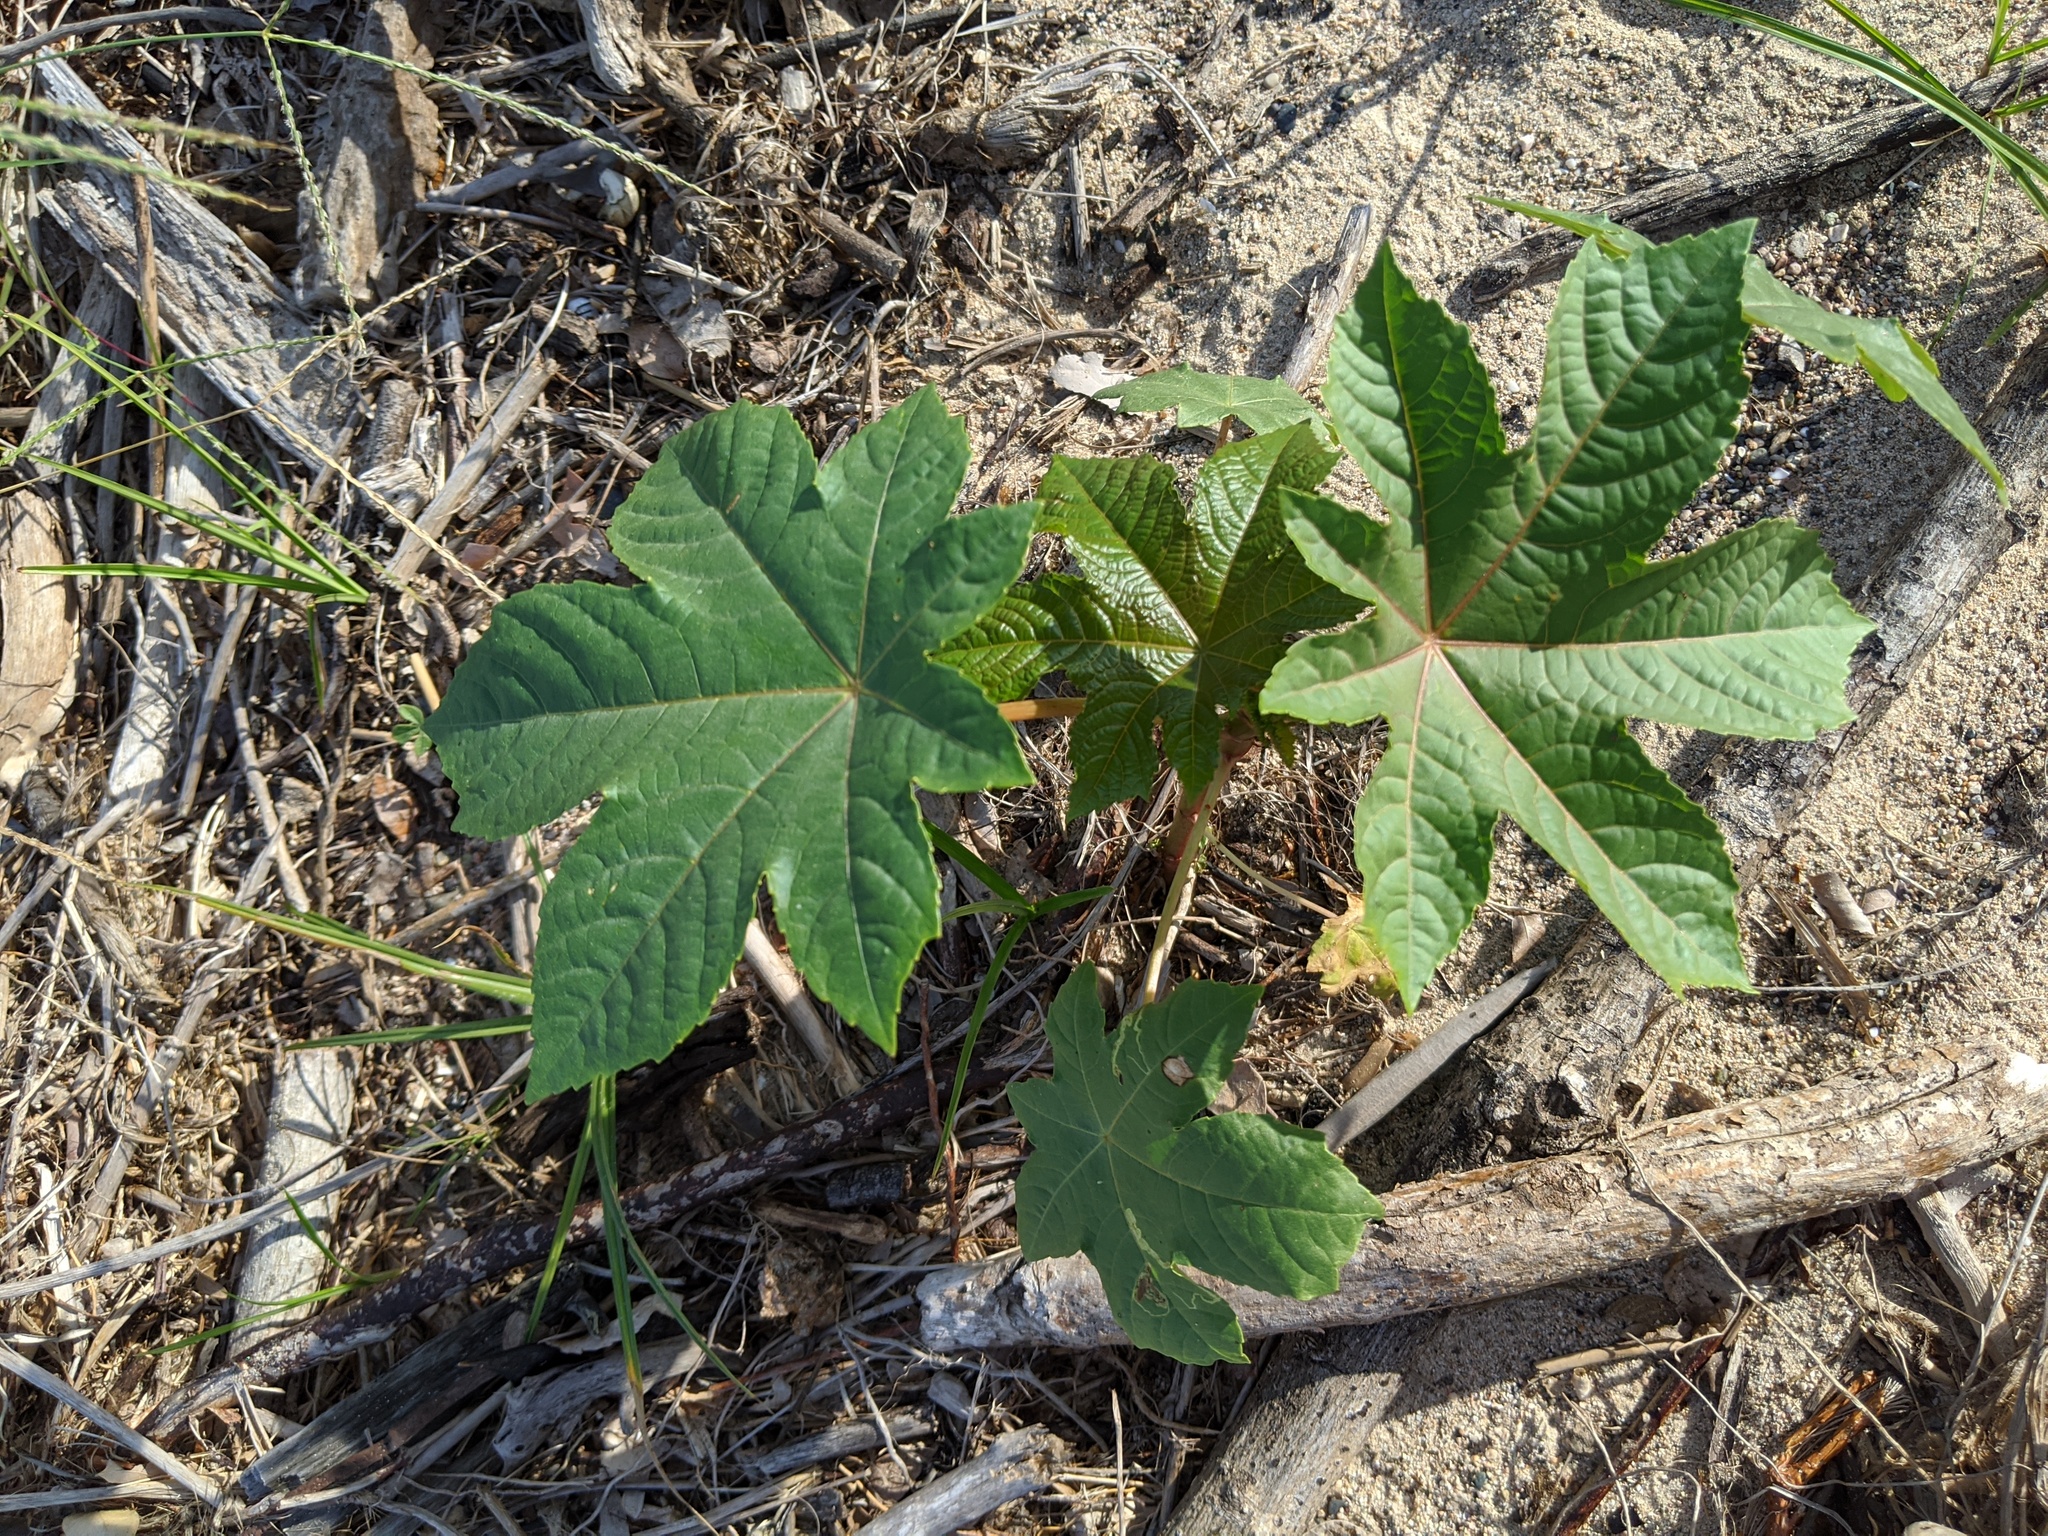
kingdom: Plantae
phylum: Tracheophyta
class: Magnoliopsida
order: Malpighiales
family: Euphorbiaceae
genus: Ricinus
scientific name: Ricinus communis
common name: Castor-oil-plant
